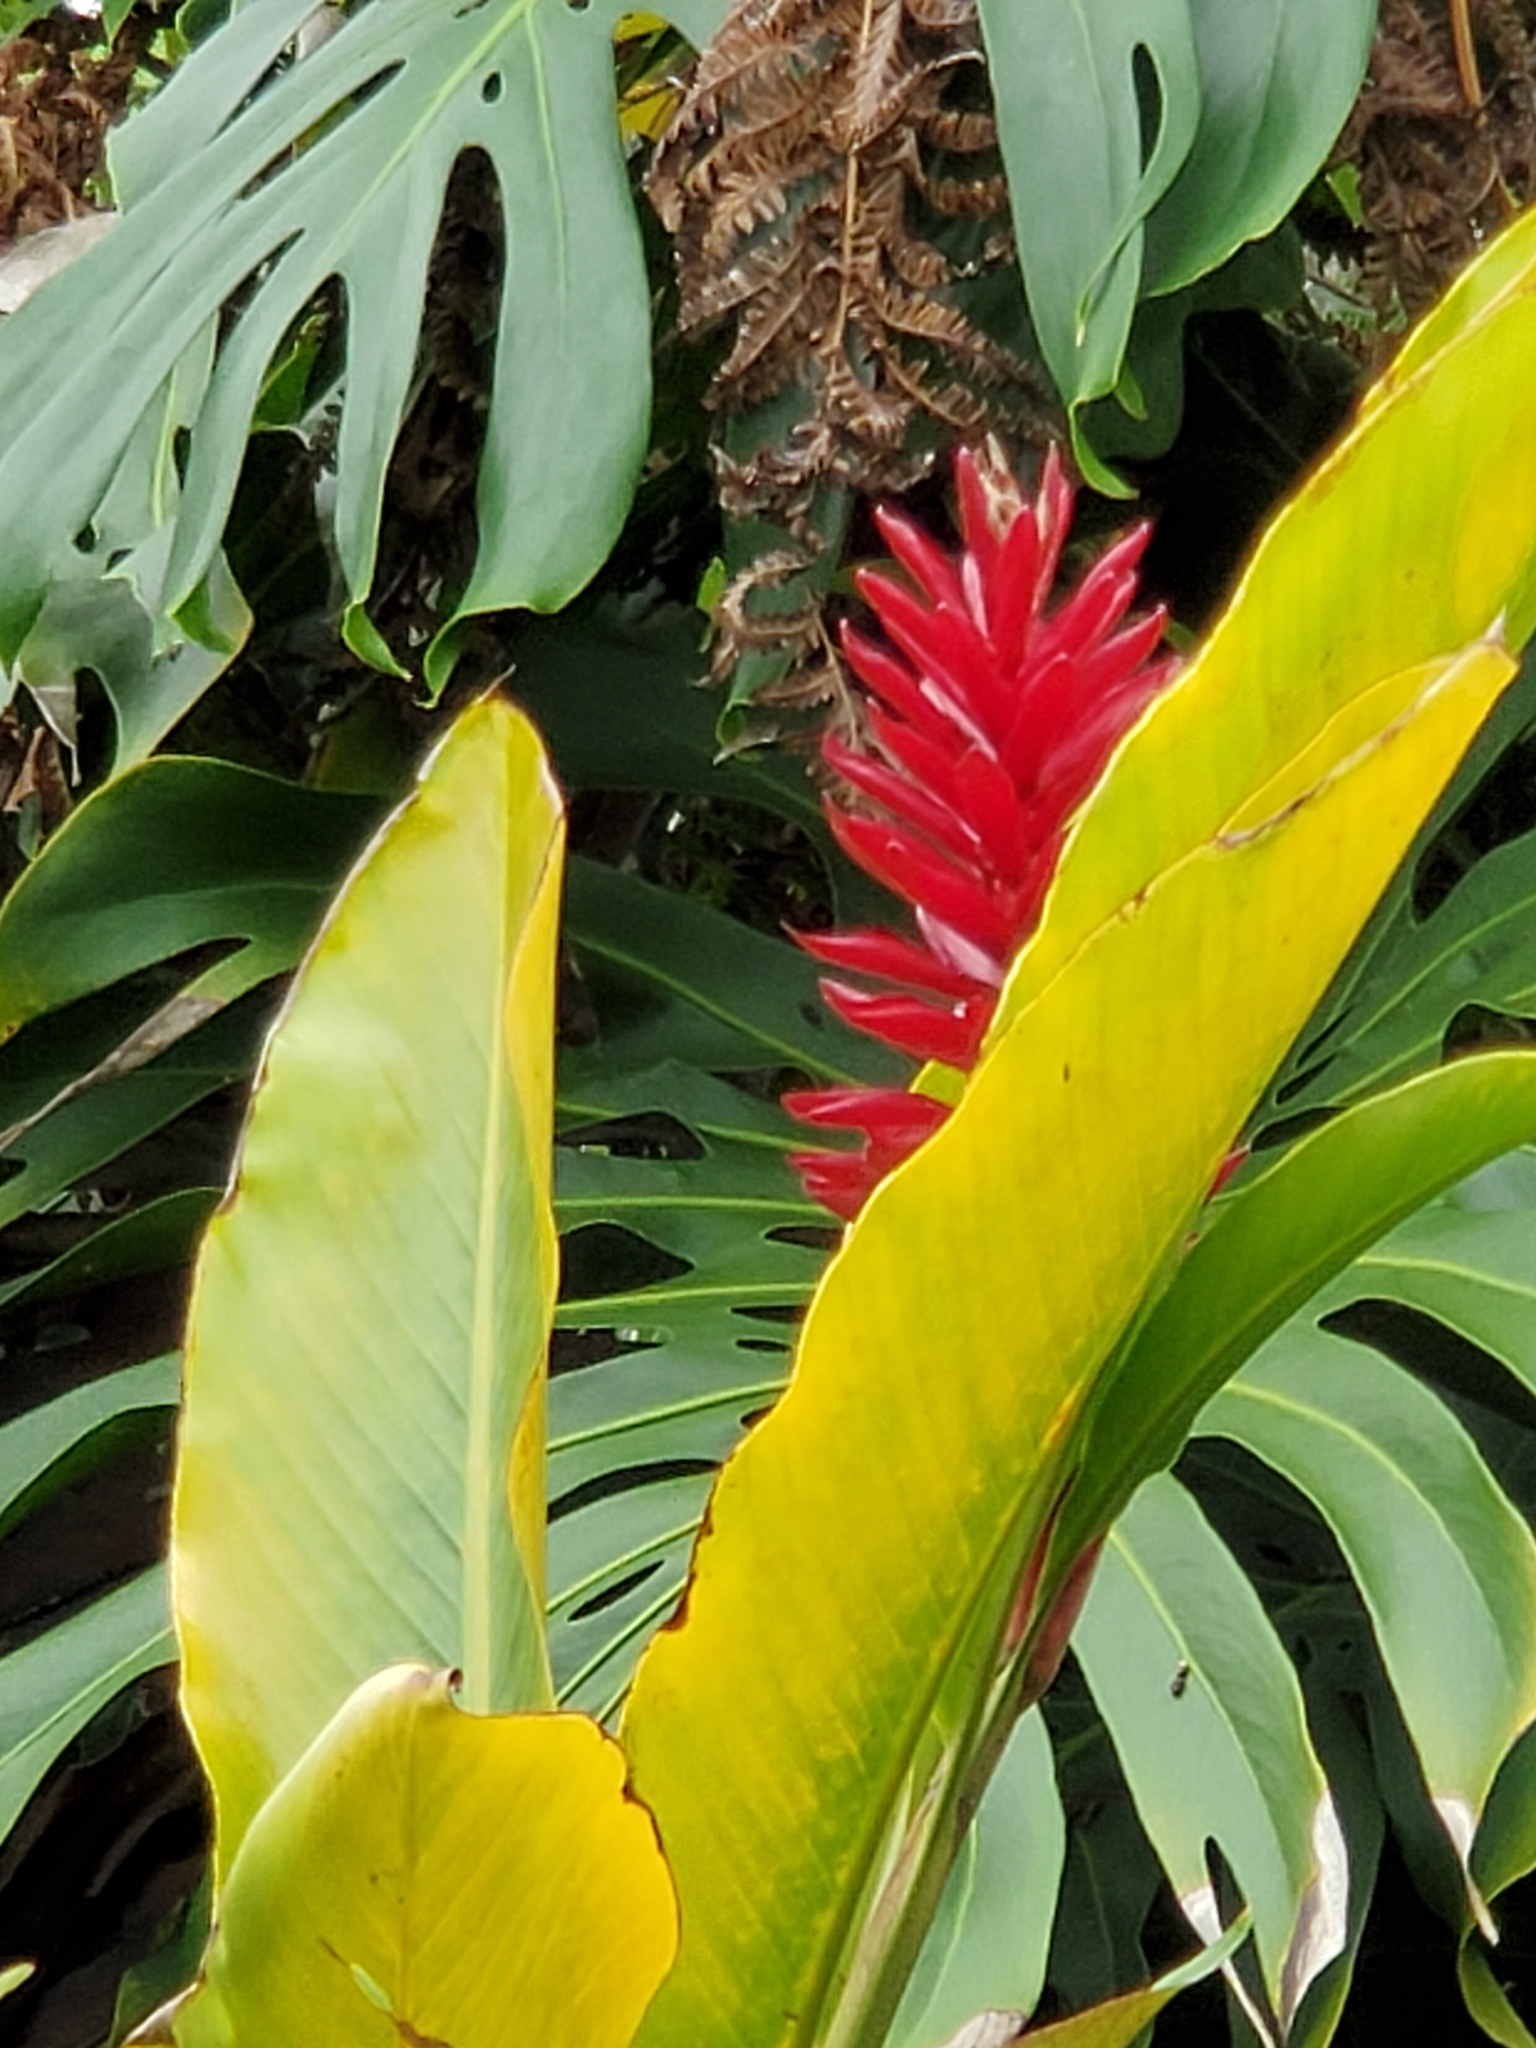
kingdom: Plantae
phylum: Tracheophyta
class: Liliopsida
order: Zingiberales
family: Zingiberaceae
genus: Alpinia
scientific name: Alpinia purpurata
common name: Red ginger
